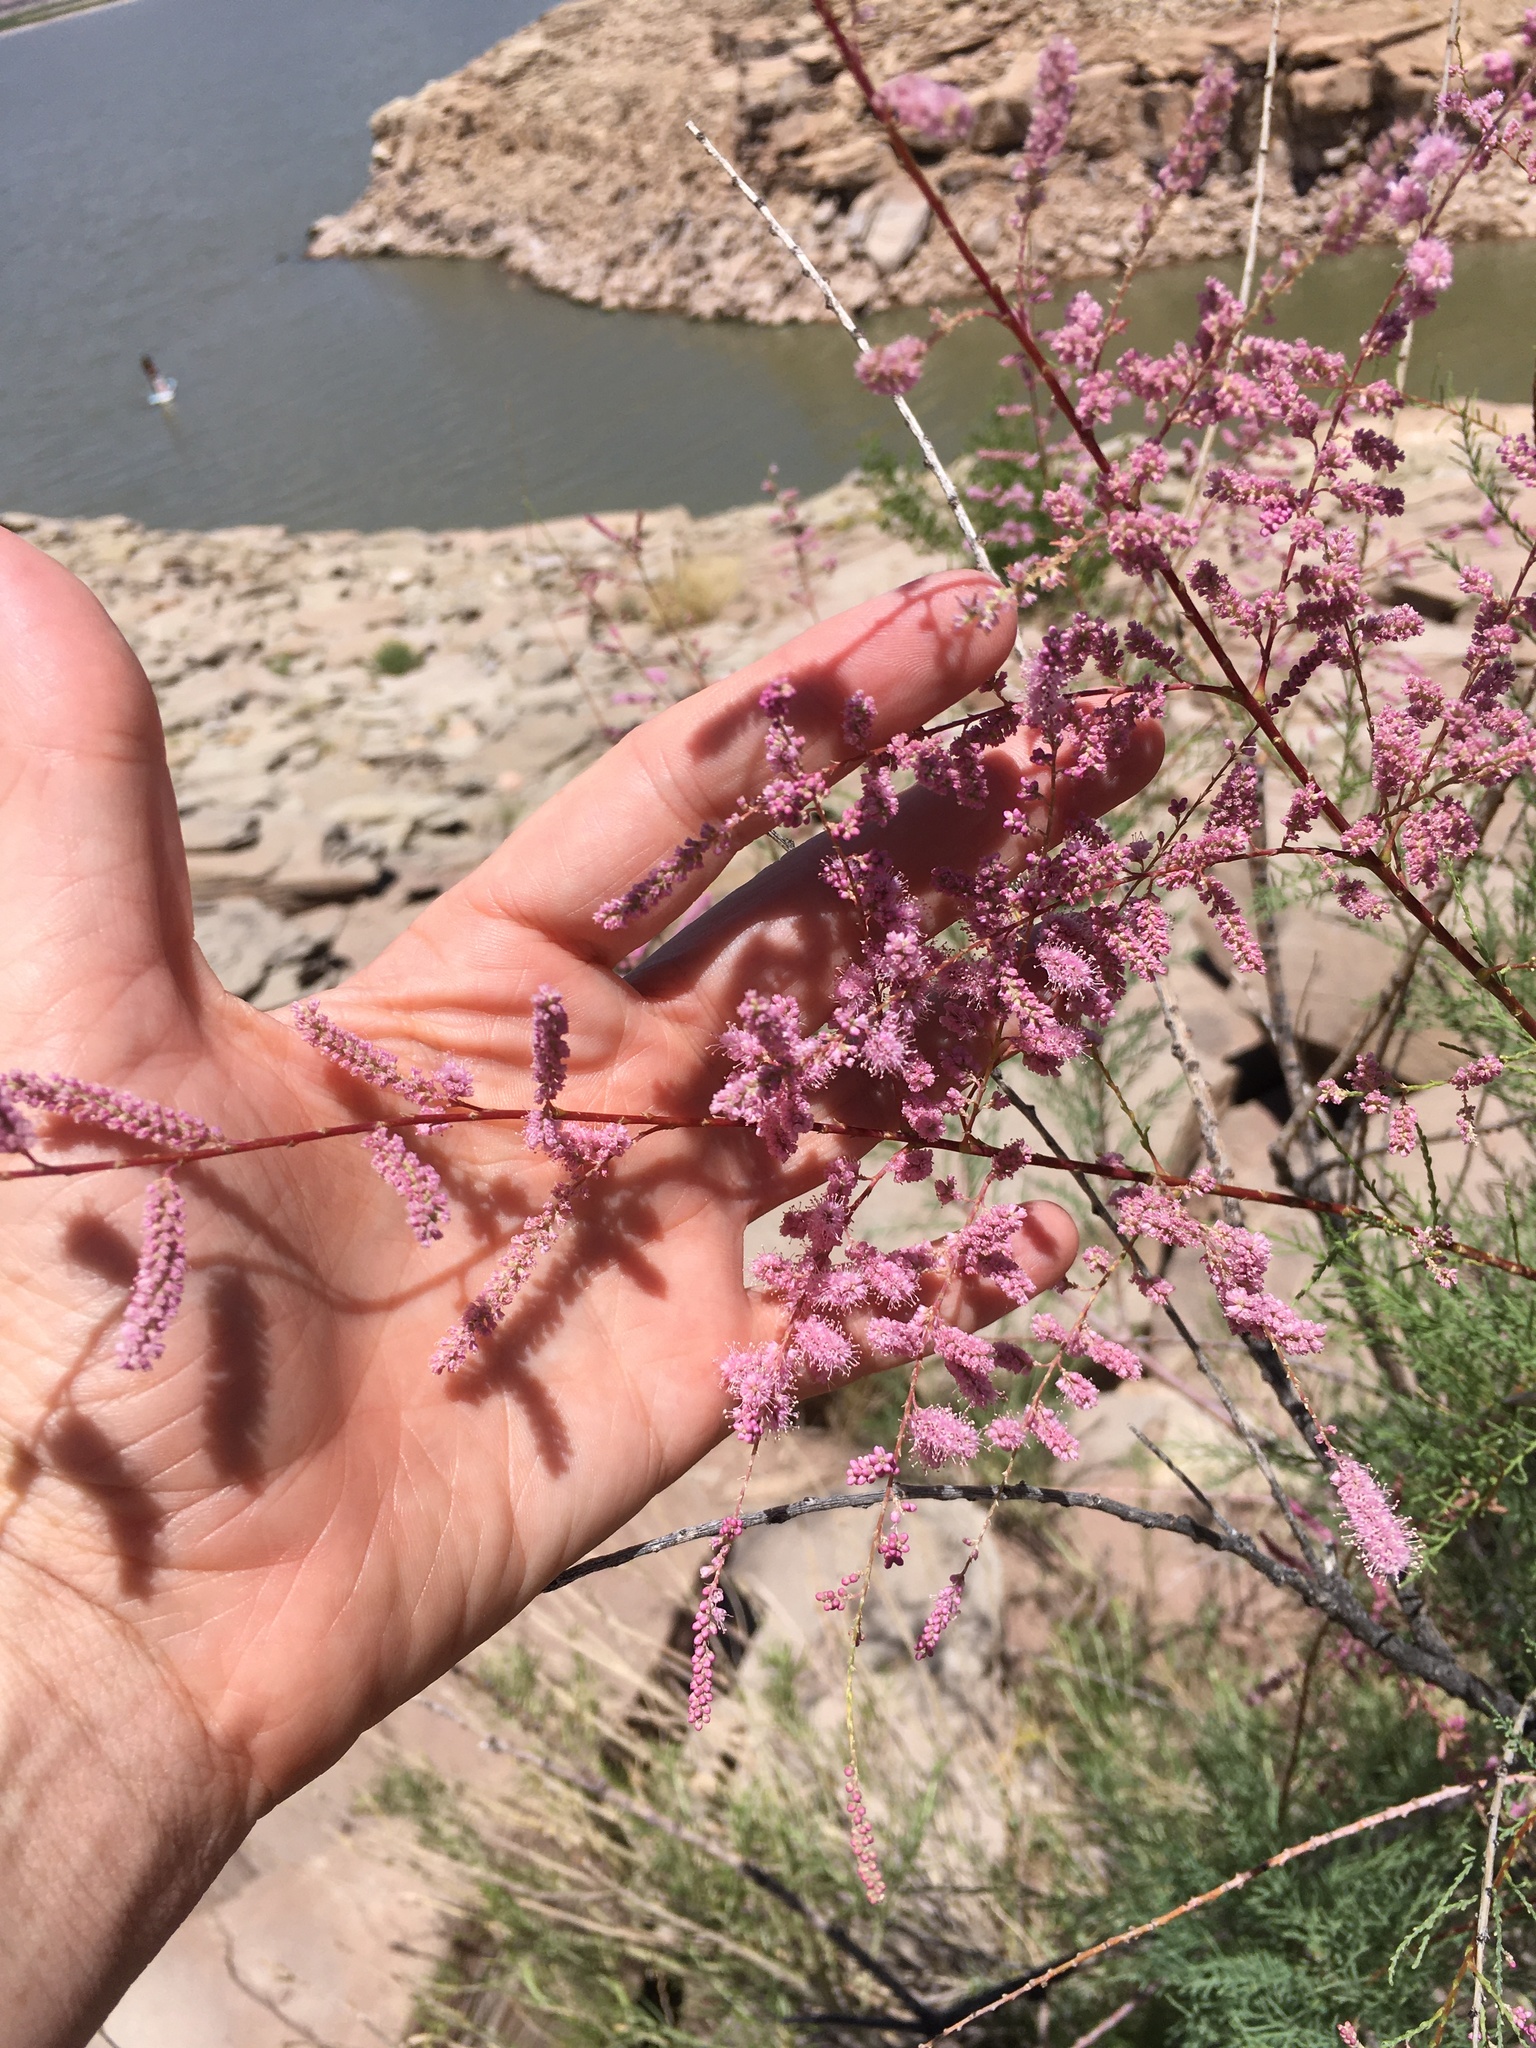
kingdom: Plantae
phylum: Tracheophyta
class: Magnoliopsida
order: Caryophyllales
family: Tamaricaceae
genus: Tamarix
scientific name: Tamarix
